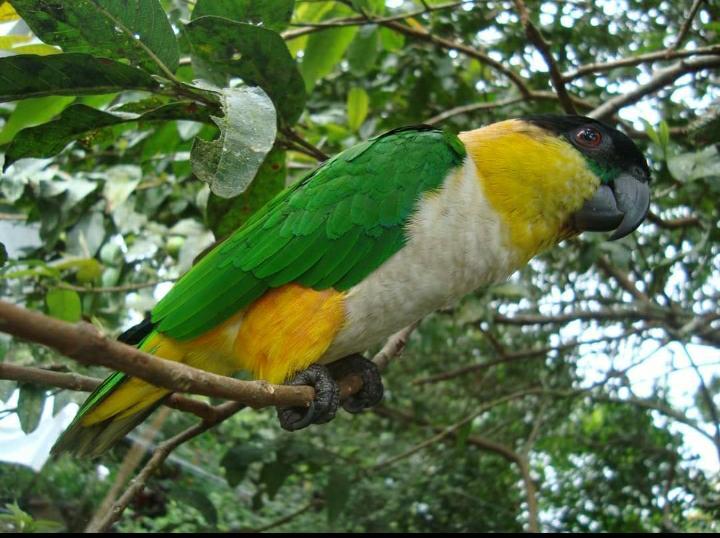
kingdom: Animalia
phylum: Chordata
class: Aves
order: Psittaciformes
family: Psittacidae
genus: Pionites
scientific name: Pionites melanocephalus
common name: Black-headed parrot
